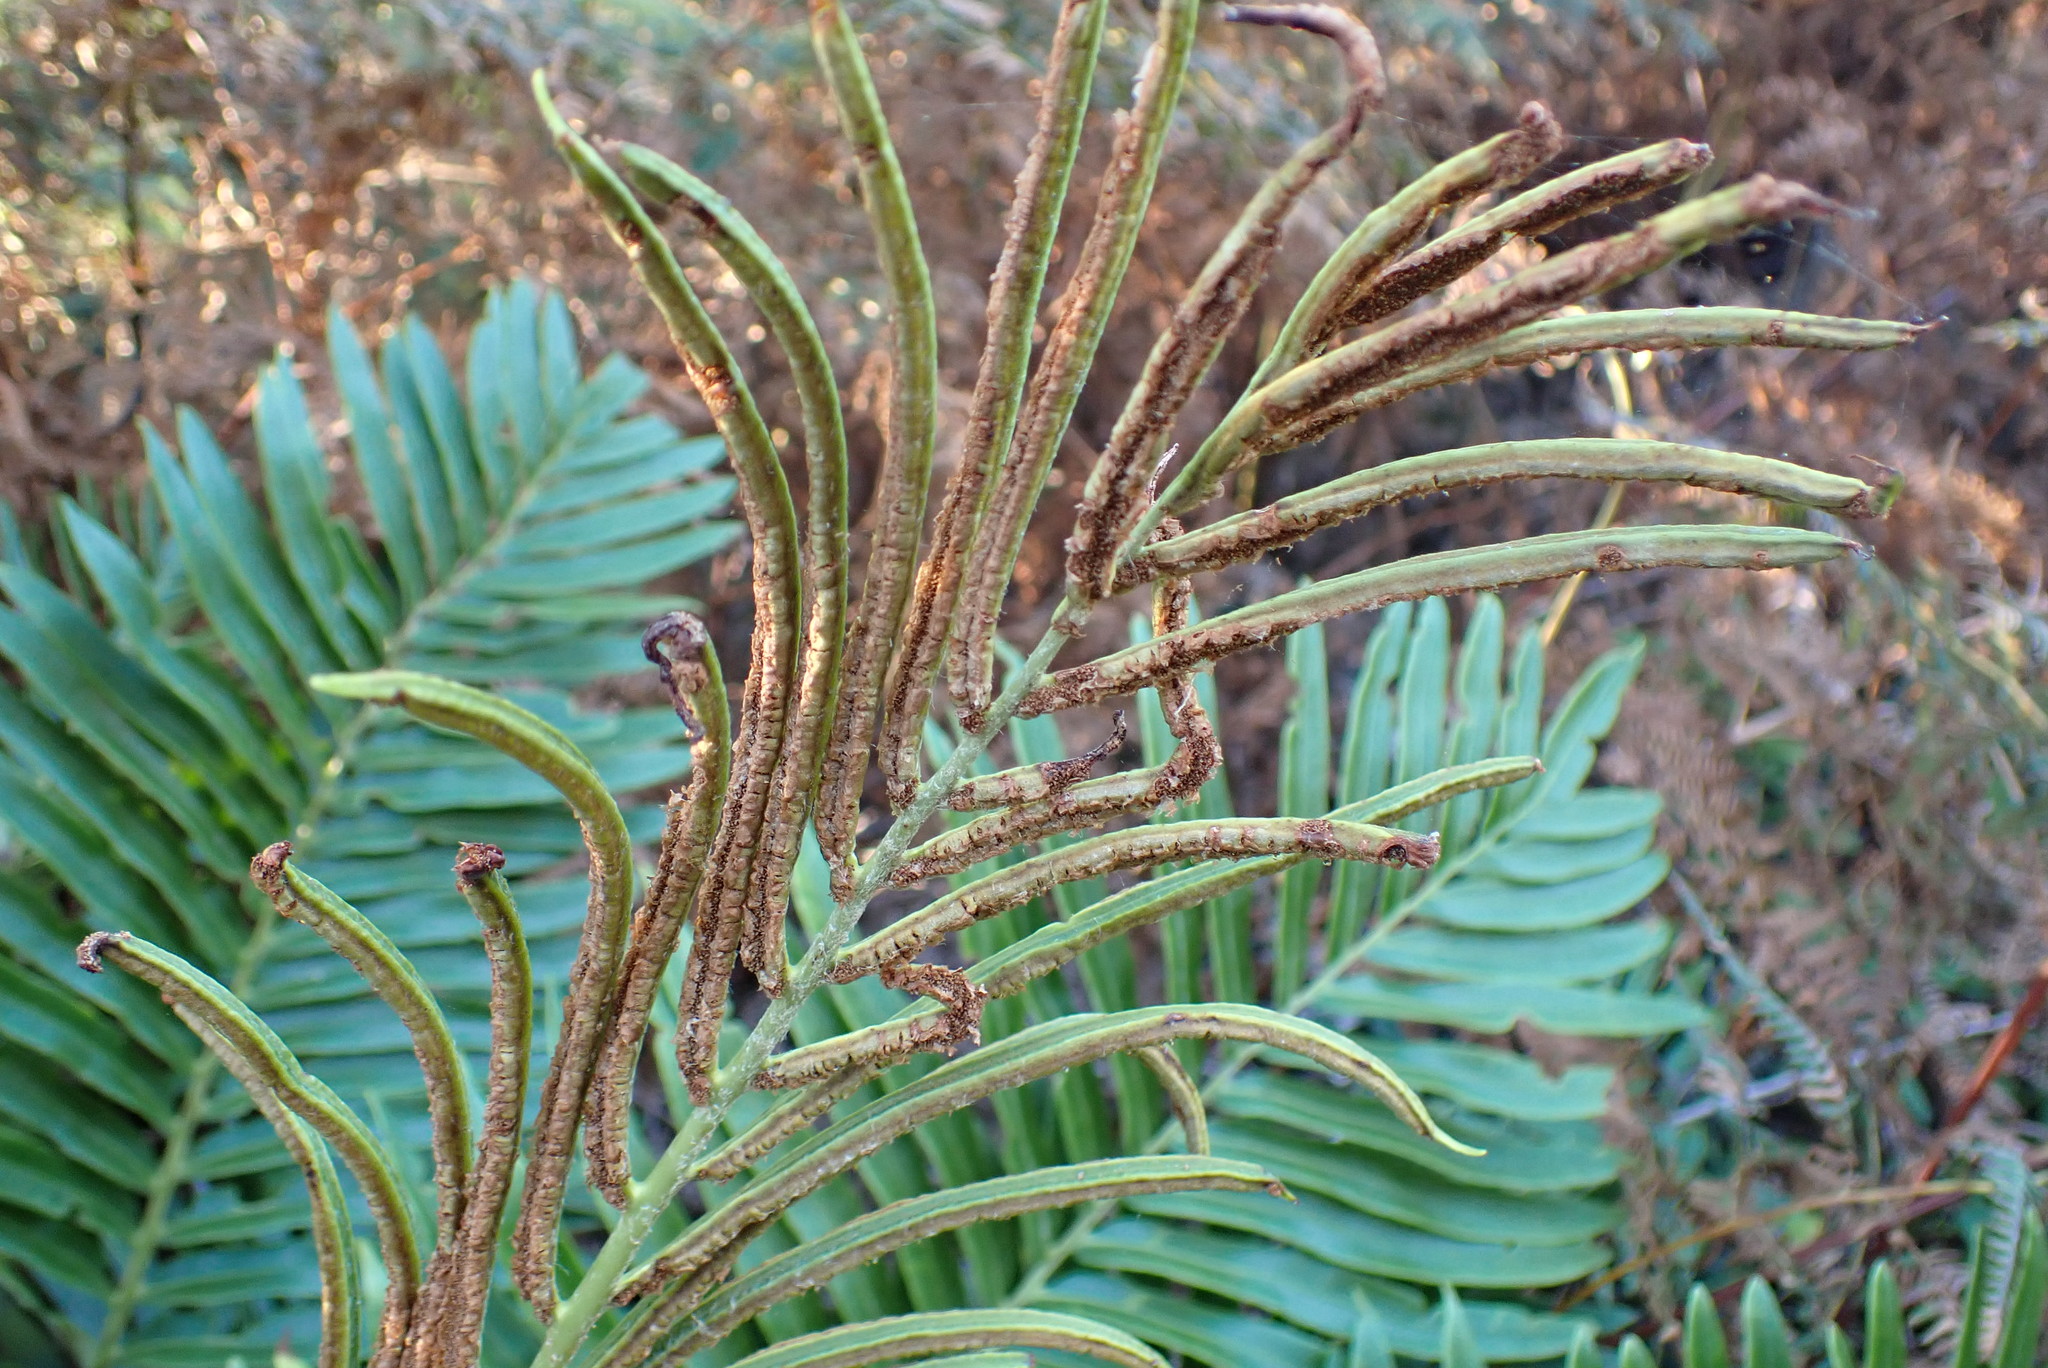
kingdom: Plantae
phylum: Tracheophyta
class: Polypodiopsida
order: Polypodiales
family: Blechnaceae
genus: Lomariocycas
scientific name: Lomariocycas tabularis
